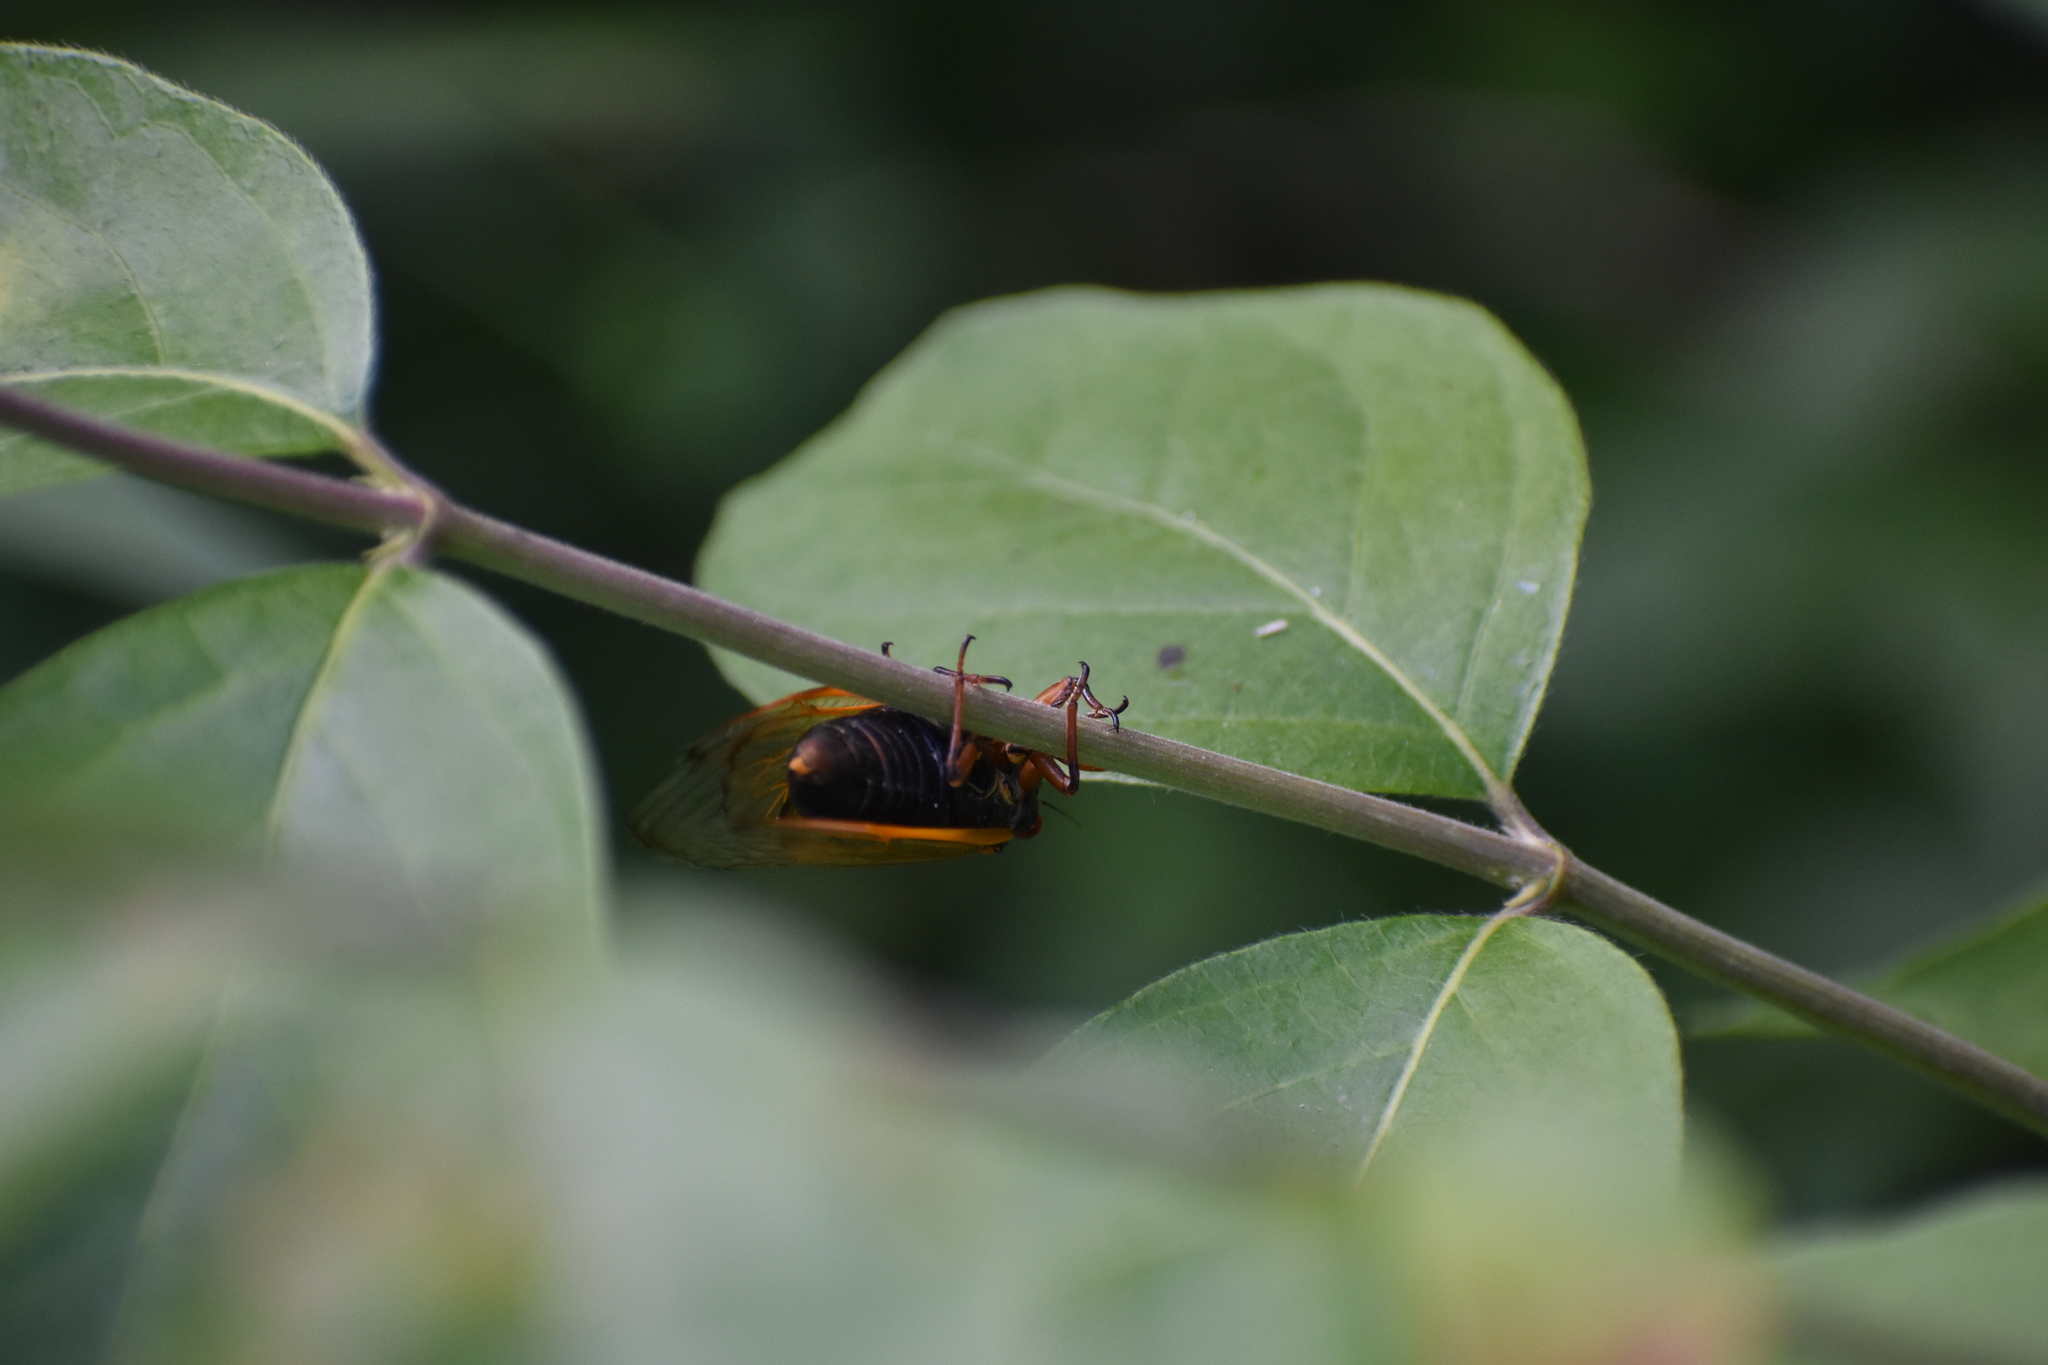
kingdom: Animalia
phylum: Arthropoda
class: Insecta
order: Hemiptera
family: Cicadidae
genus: Magicicada
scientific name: Magicicada cassini
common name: Cassin's 17-year cicada
